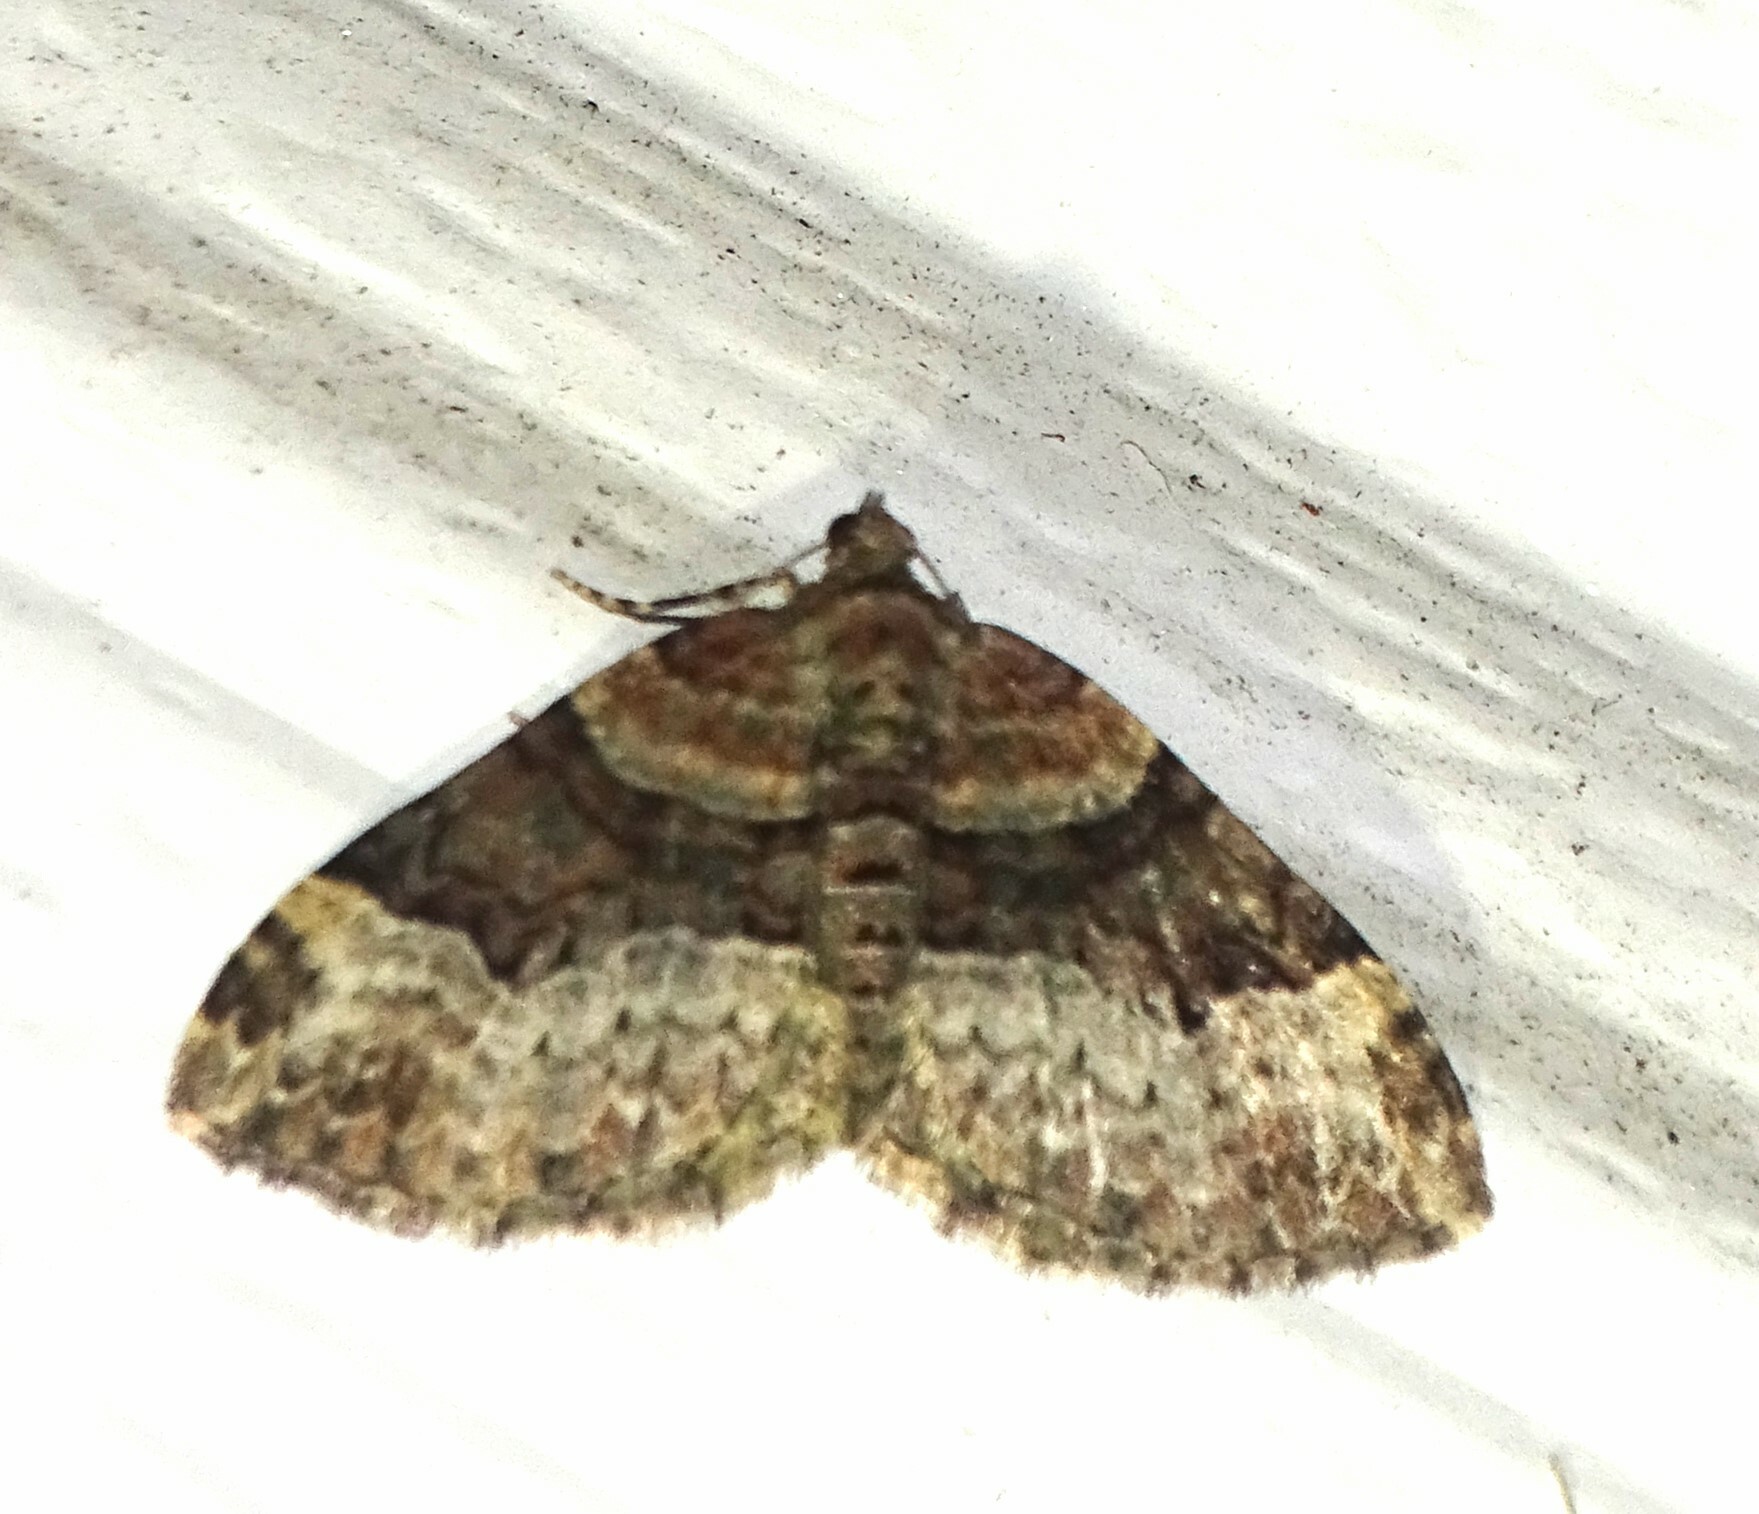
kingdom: Animalia
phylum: Arthropoda
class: Insecta
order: Lepidoptera
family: Geometridae
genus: Xanthorhoe
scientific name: Xanthorhoe lacustrata
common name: Toothed brown carpet
